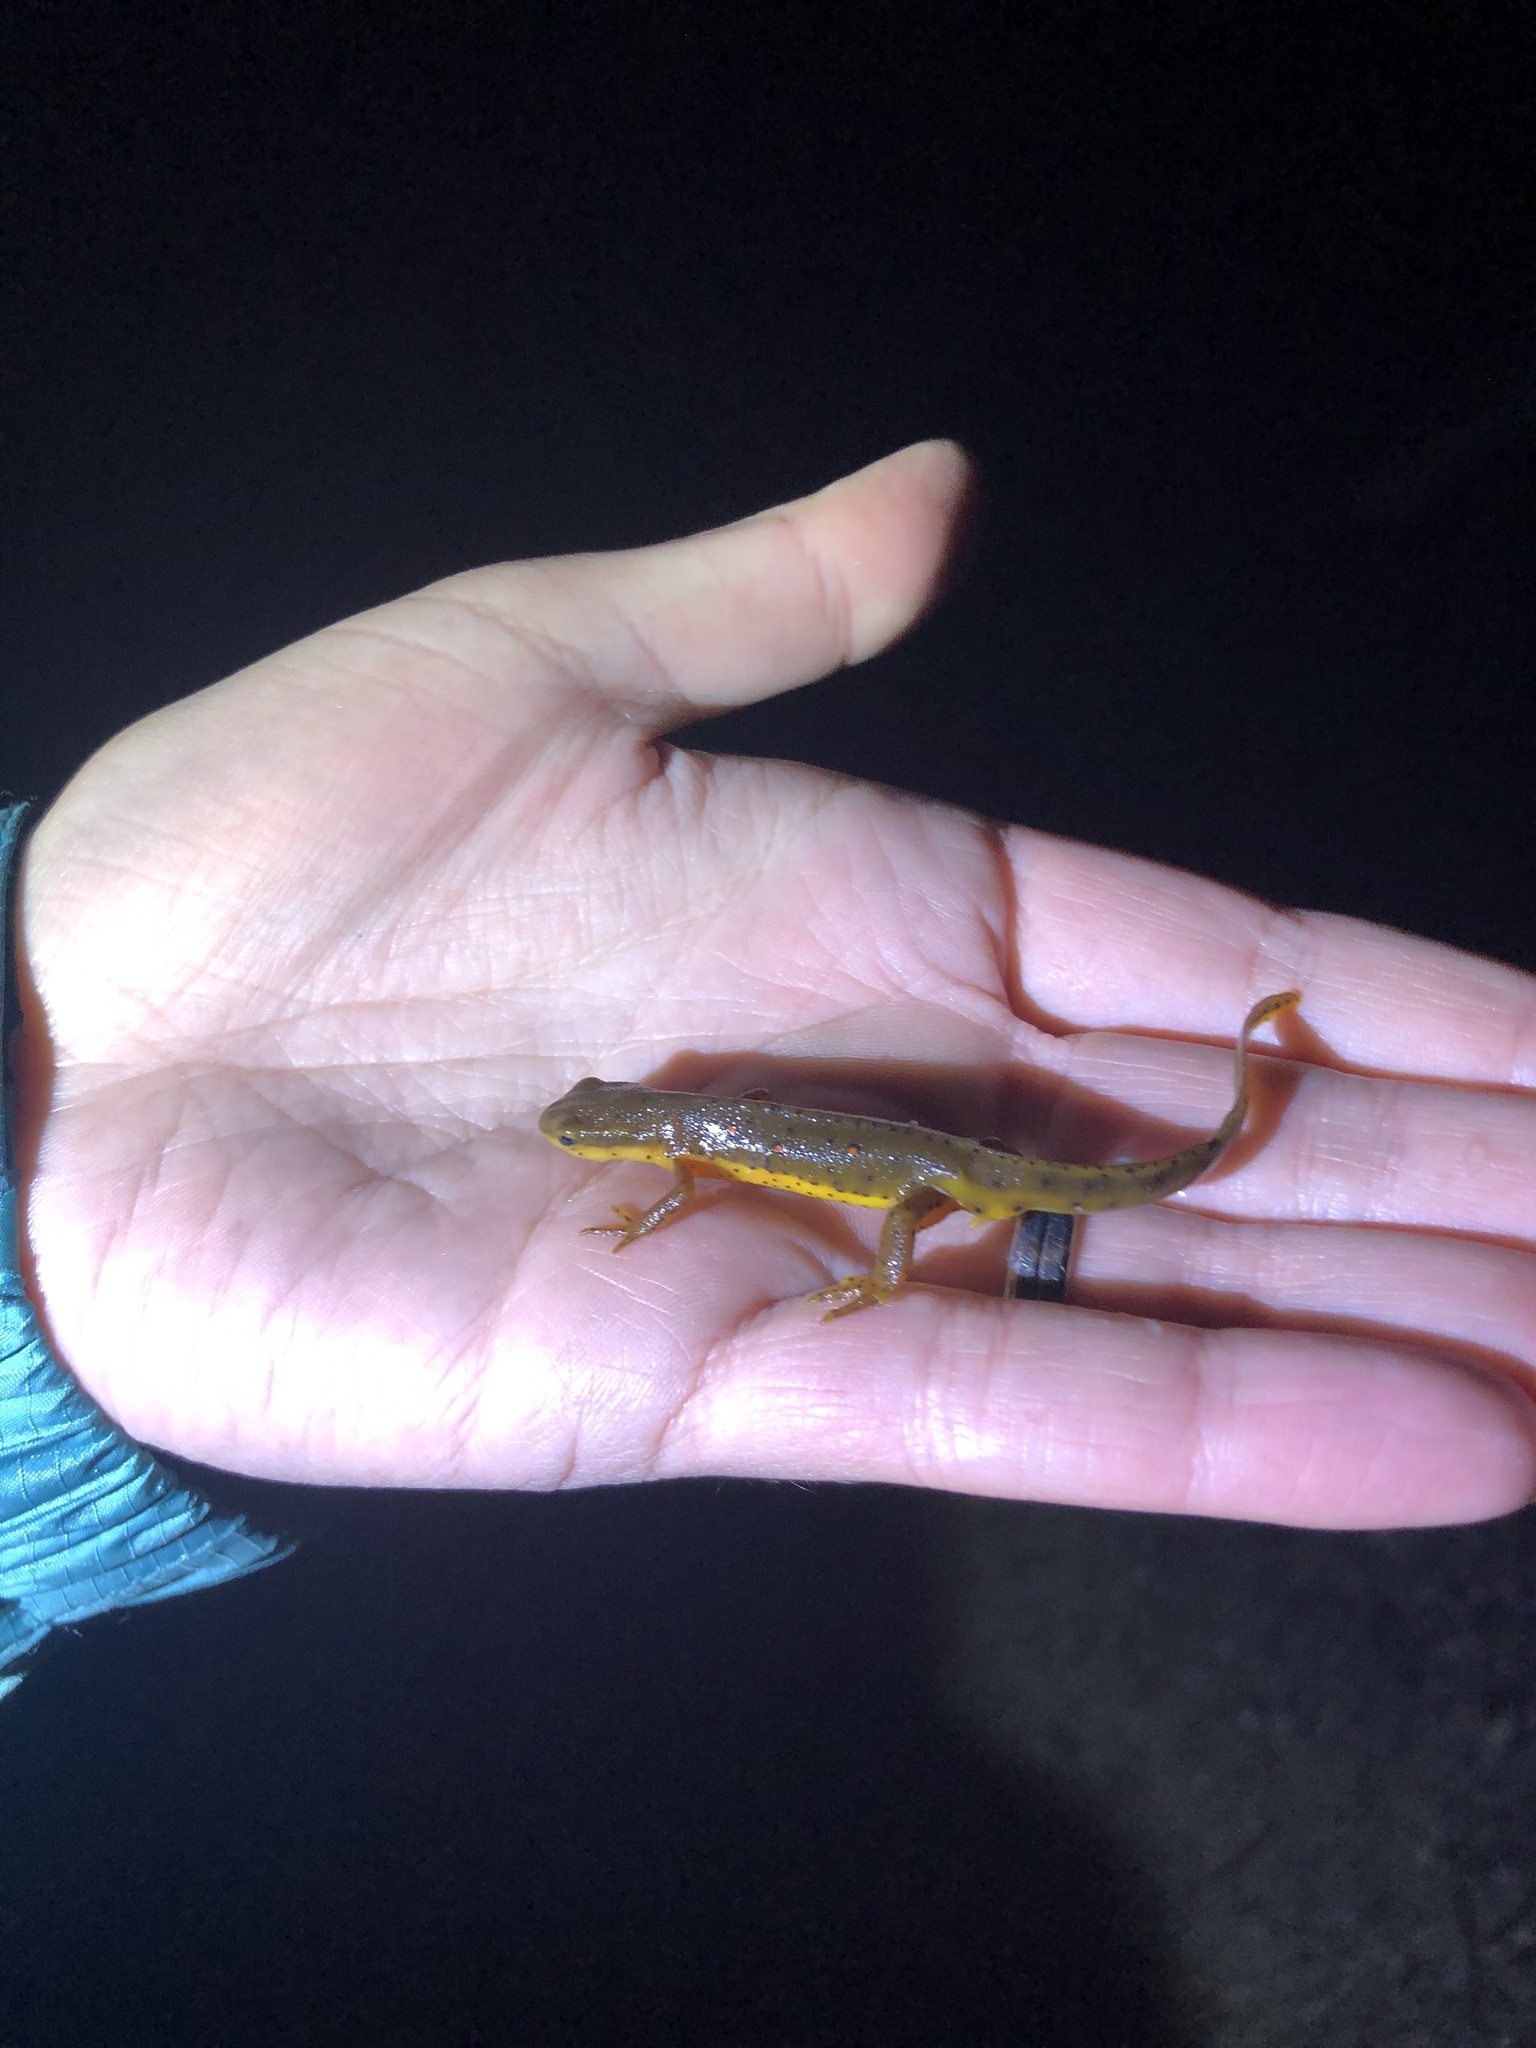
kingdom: Animalia
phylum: Chordata
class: Amphibia
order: Caudata
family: Salamandridae
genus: Notophthalmus
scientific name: Notophthalmus viridescens
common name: Eastern newt
